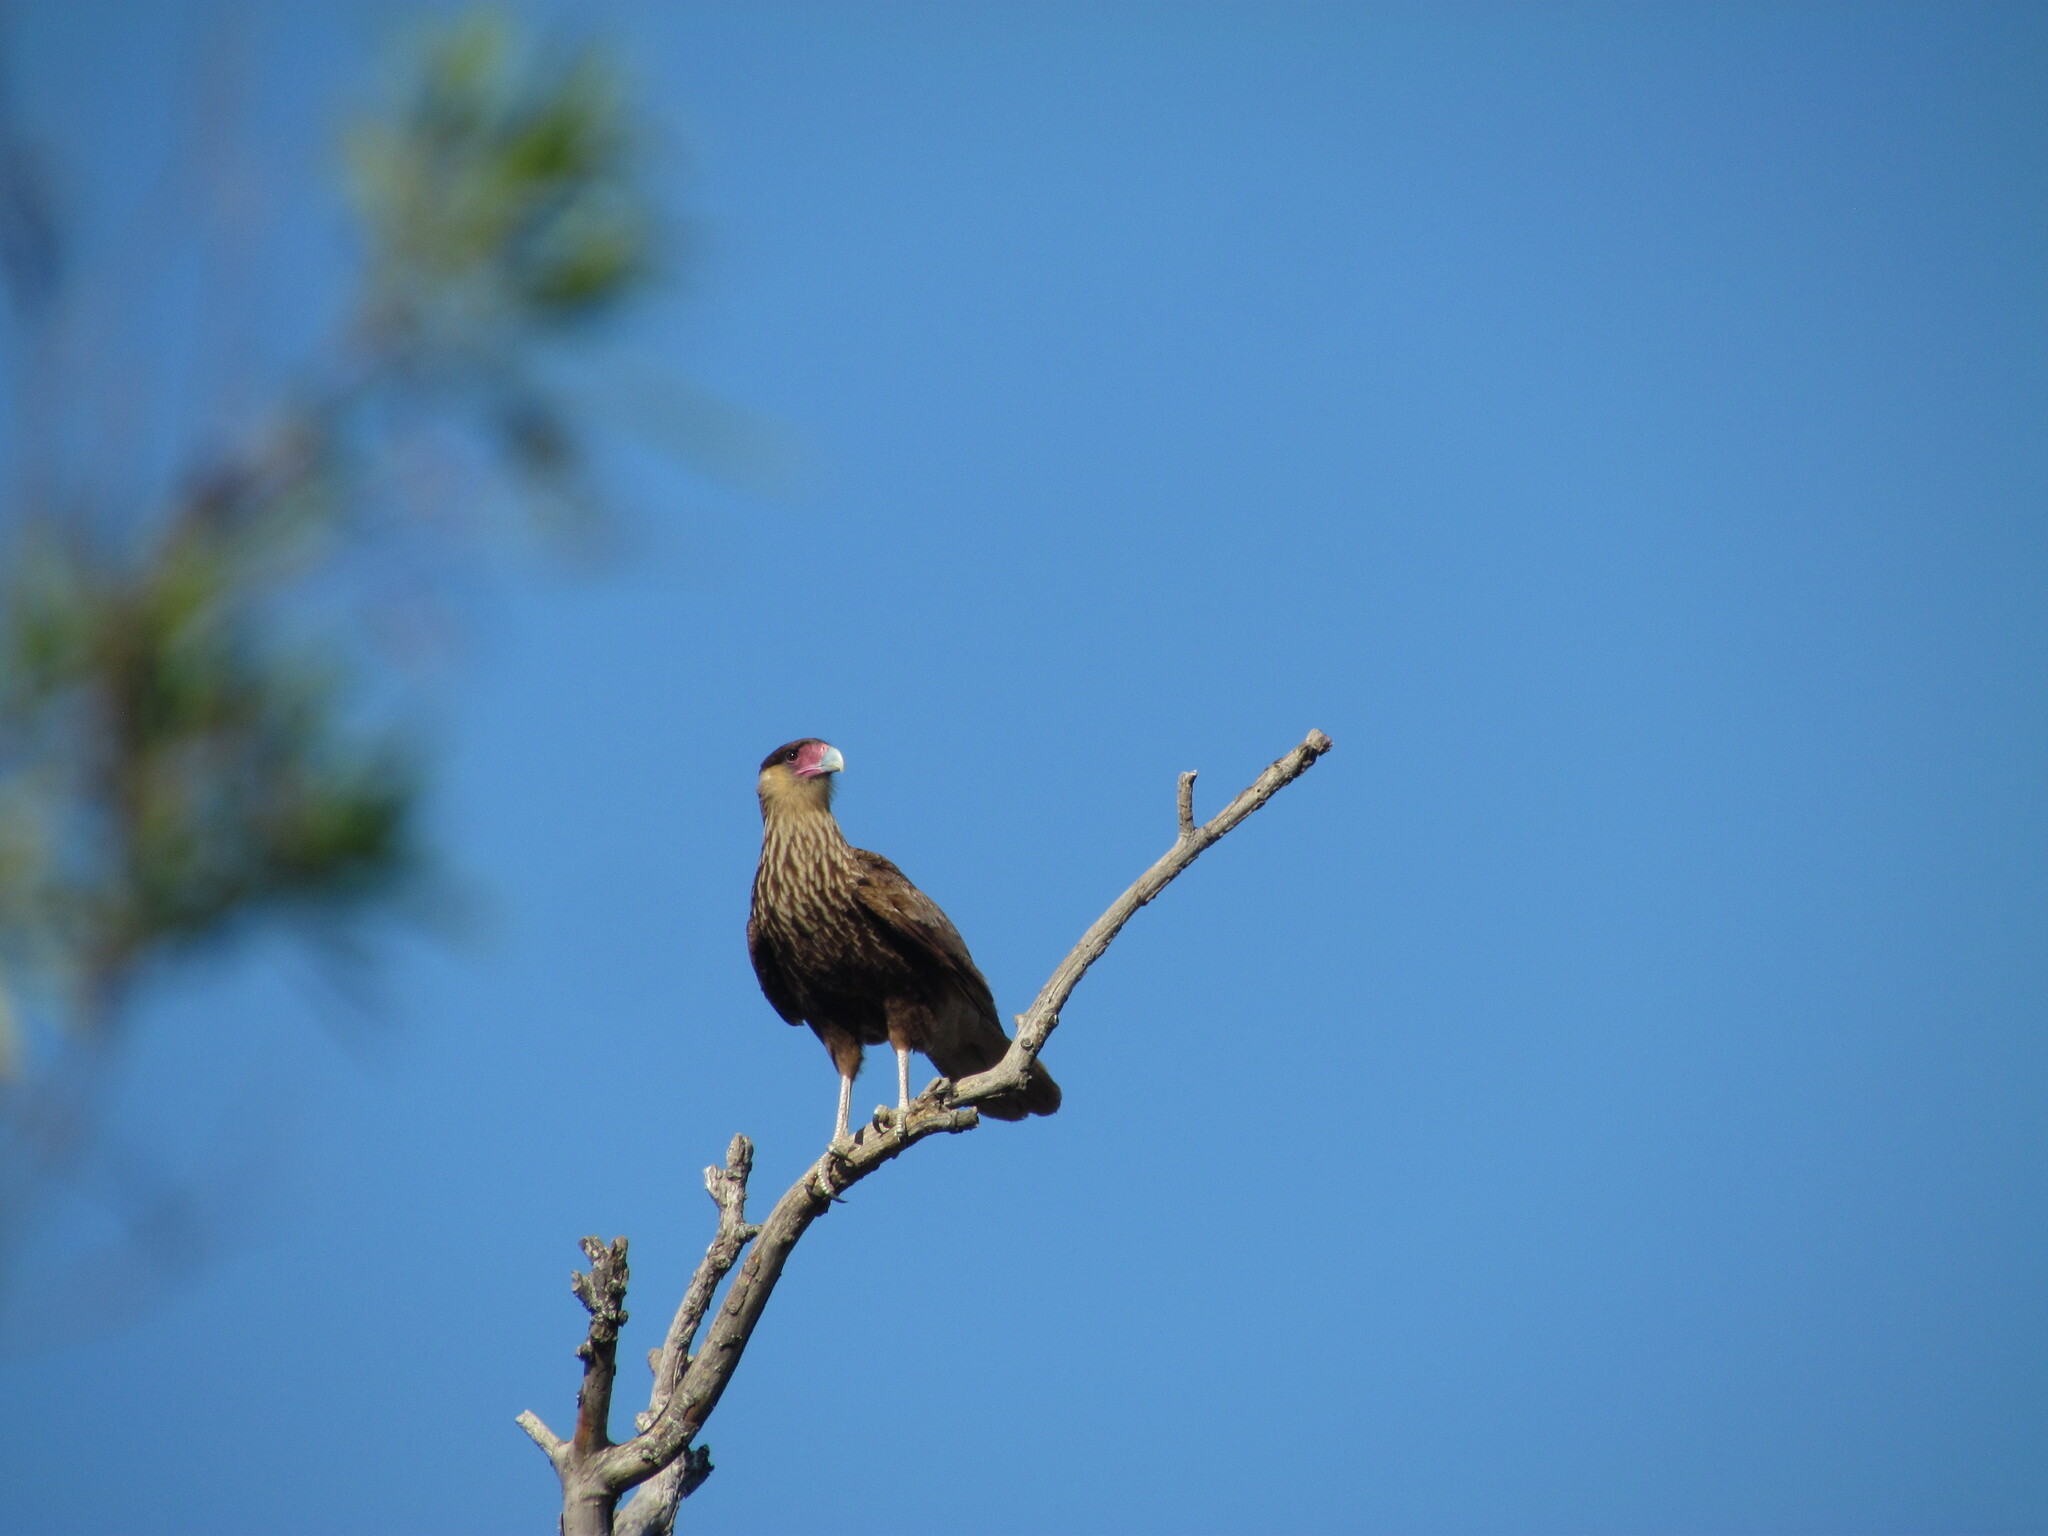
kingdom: Animalia
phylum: Chordata
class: Aves
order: Falconiformes
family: Falconidae
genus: Caracara
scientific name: Caracara plancus
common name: Southern caracara
